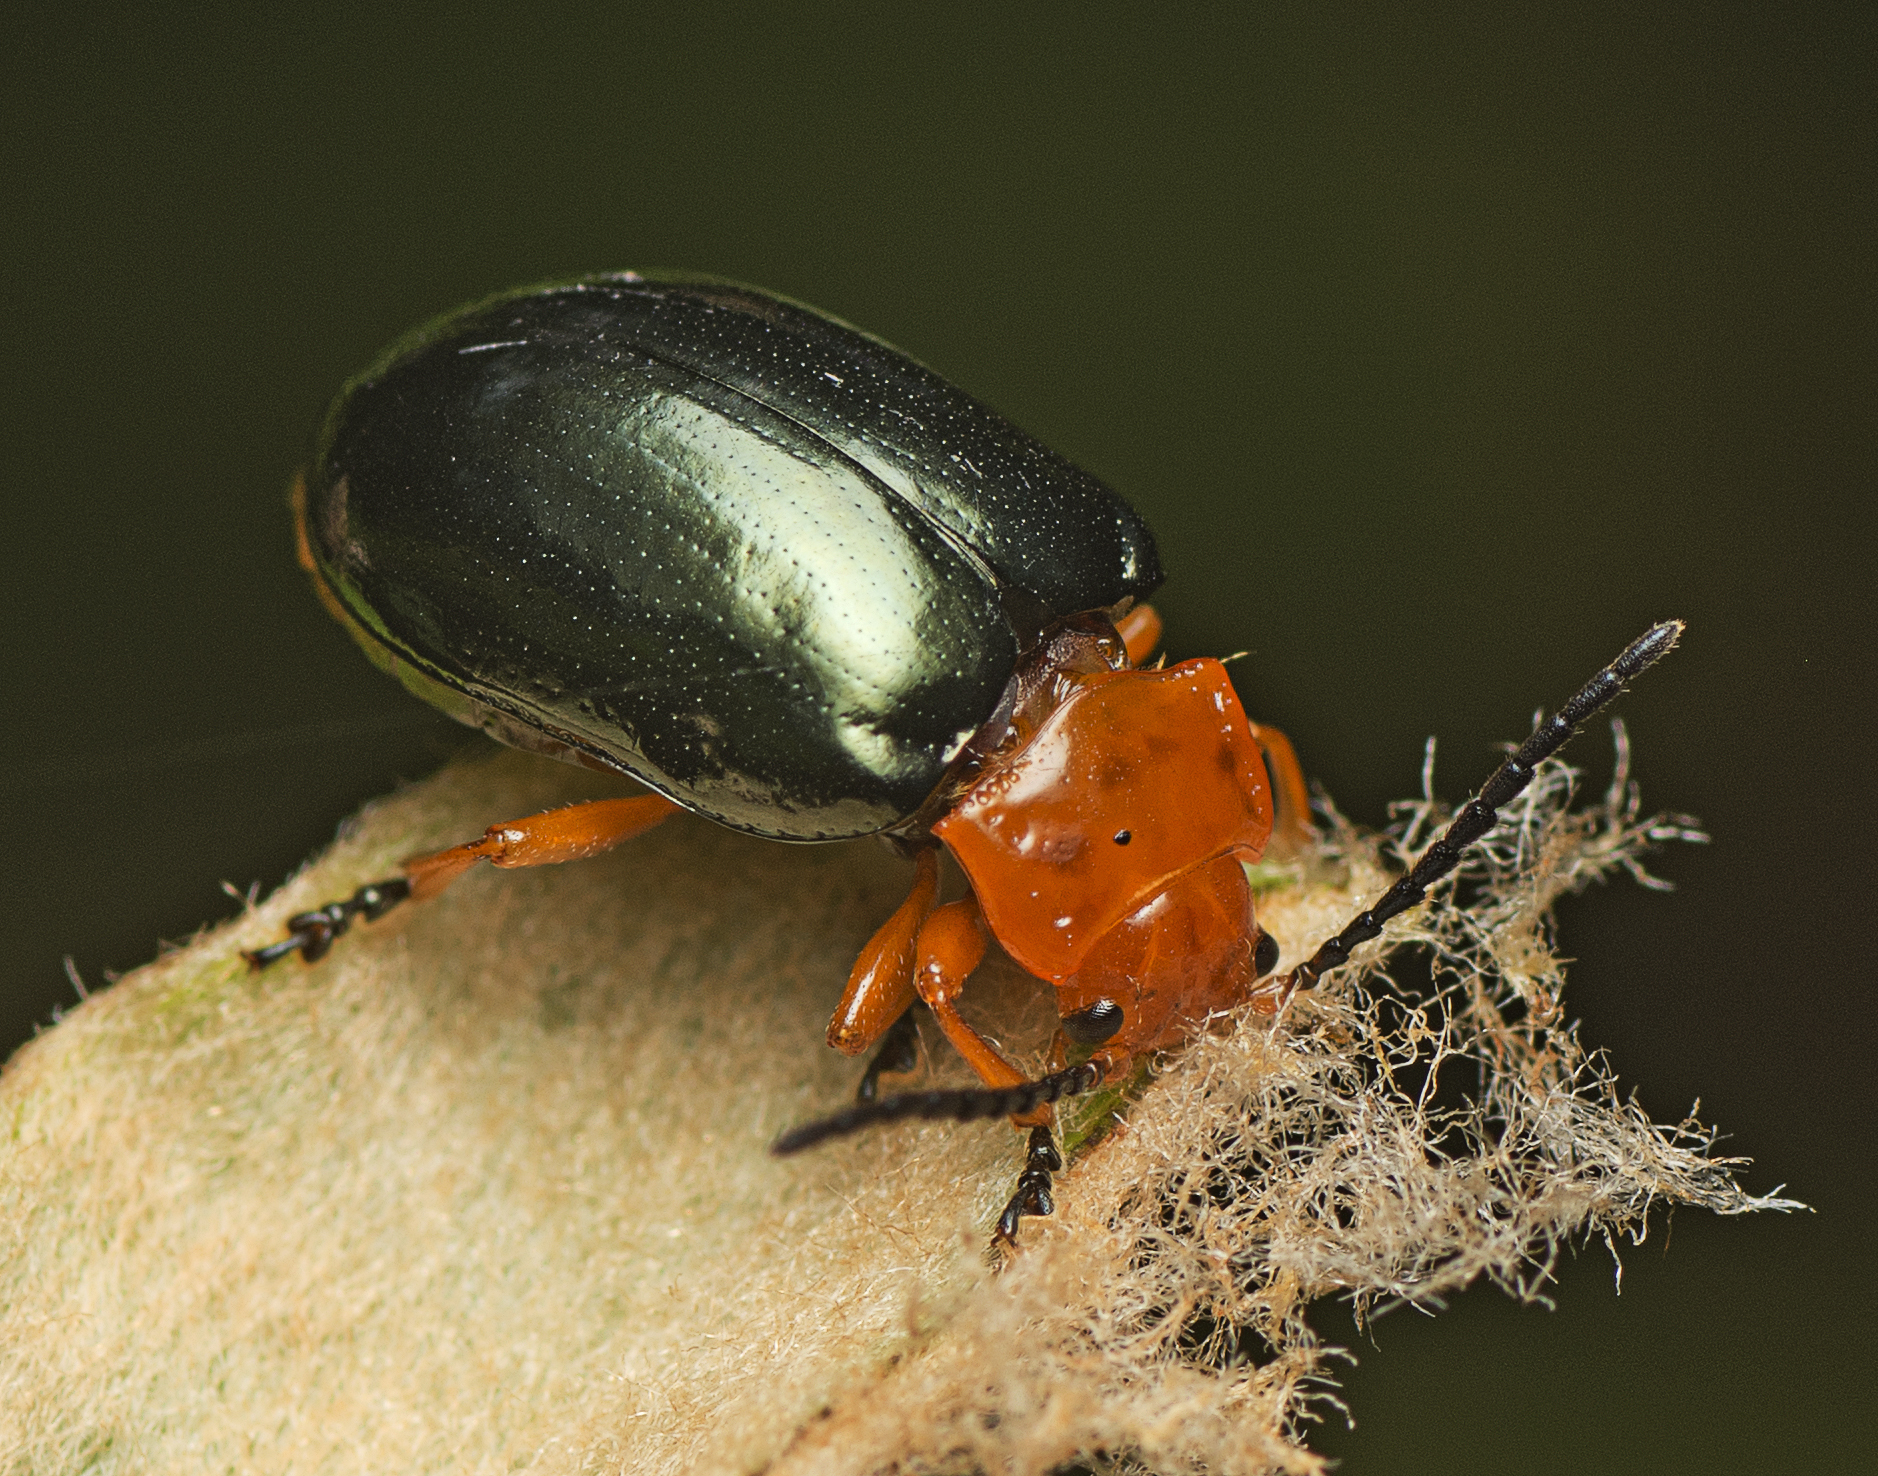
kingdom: Animalia
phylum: Arthropoda
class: Insecta
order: Coleoptera
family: Chrysomelidae
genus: Lamprolina
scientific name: Lamprolina
